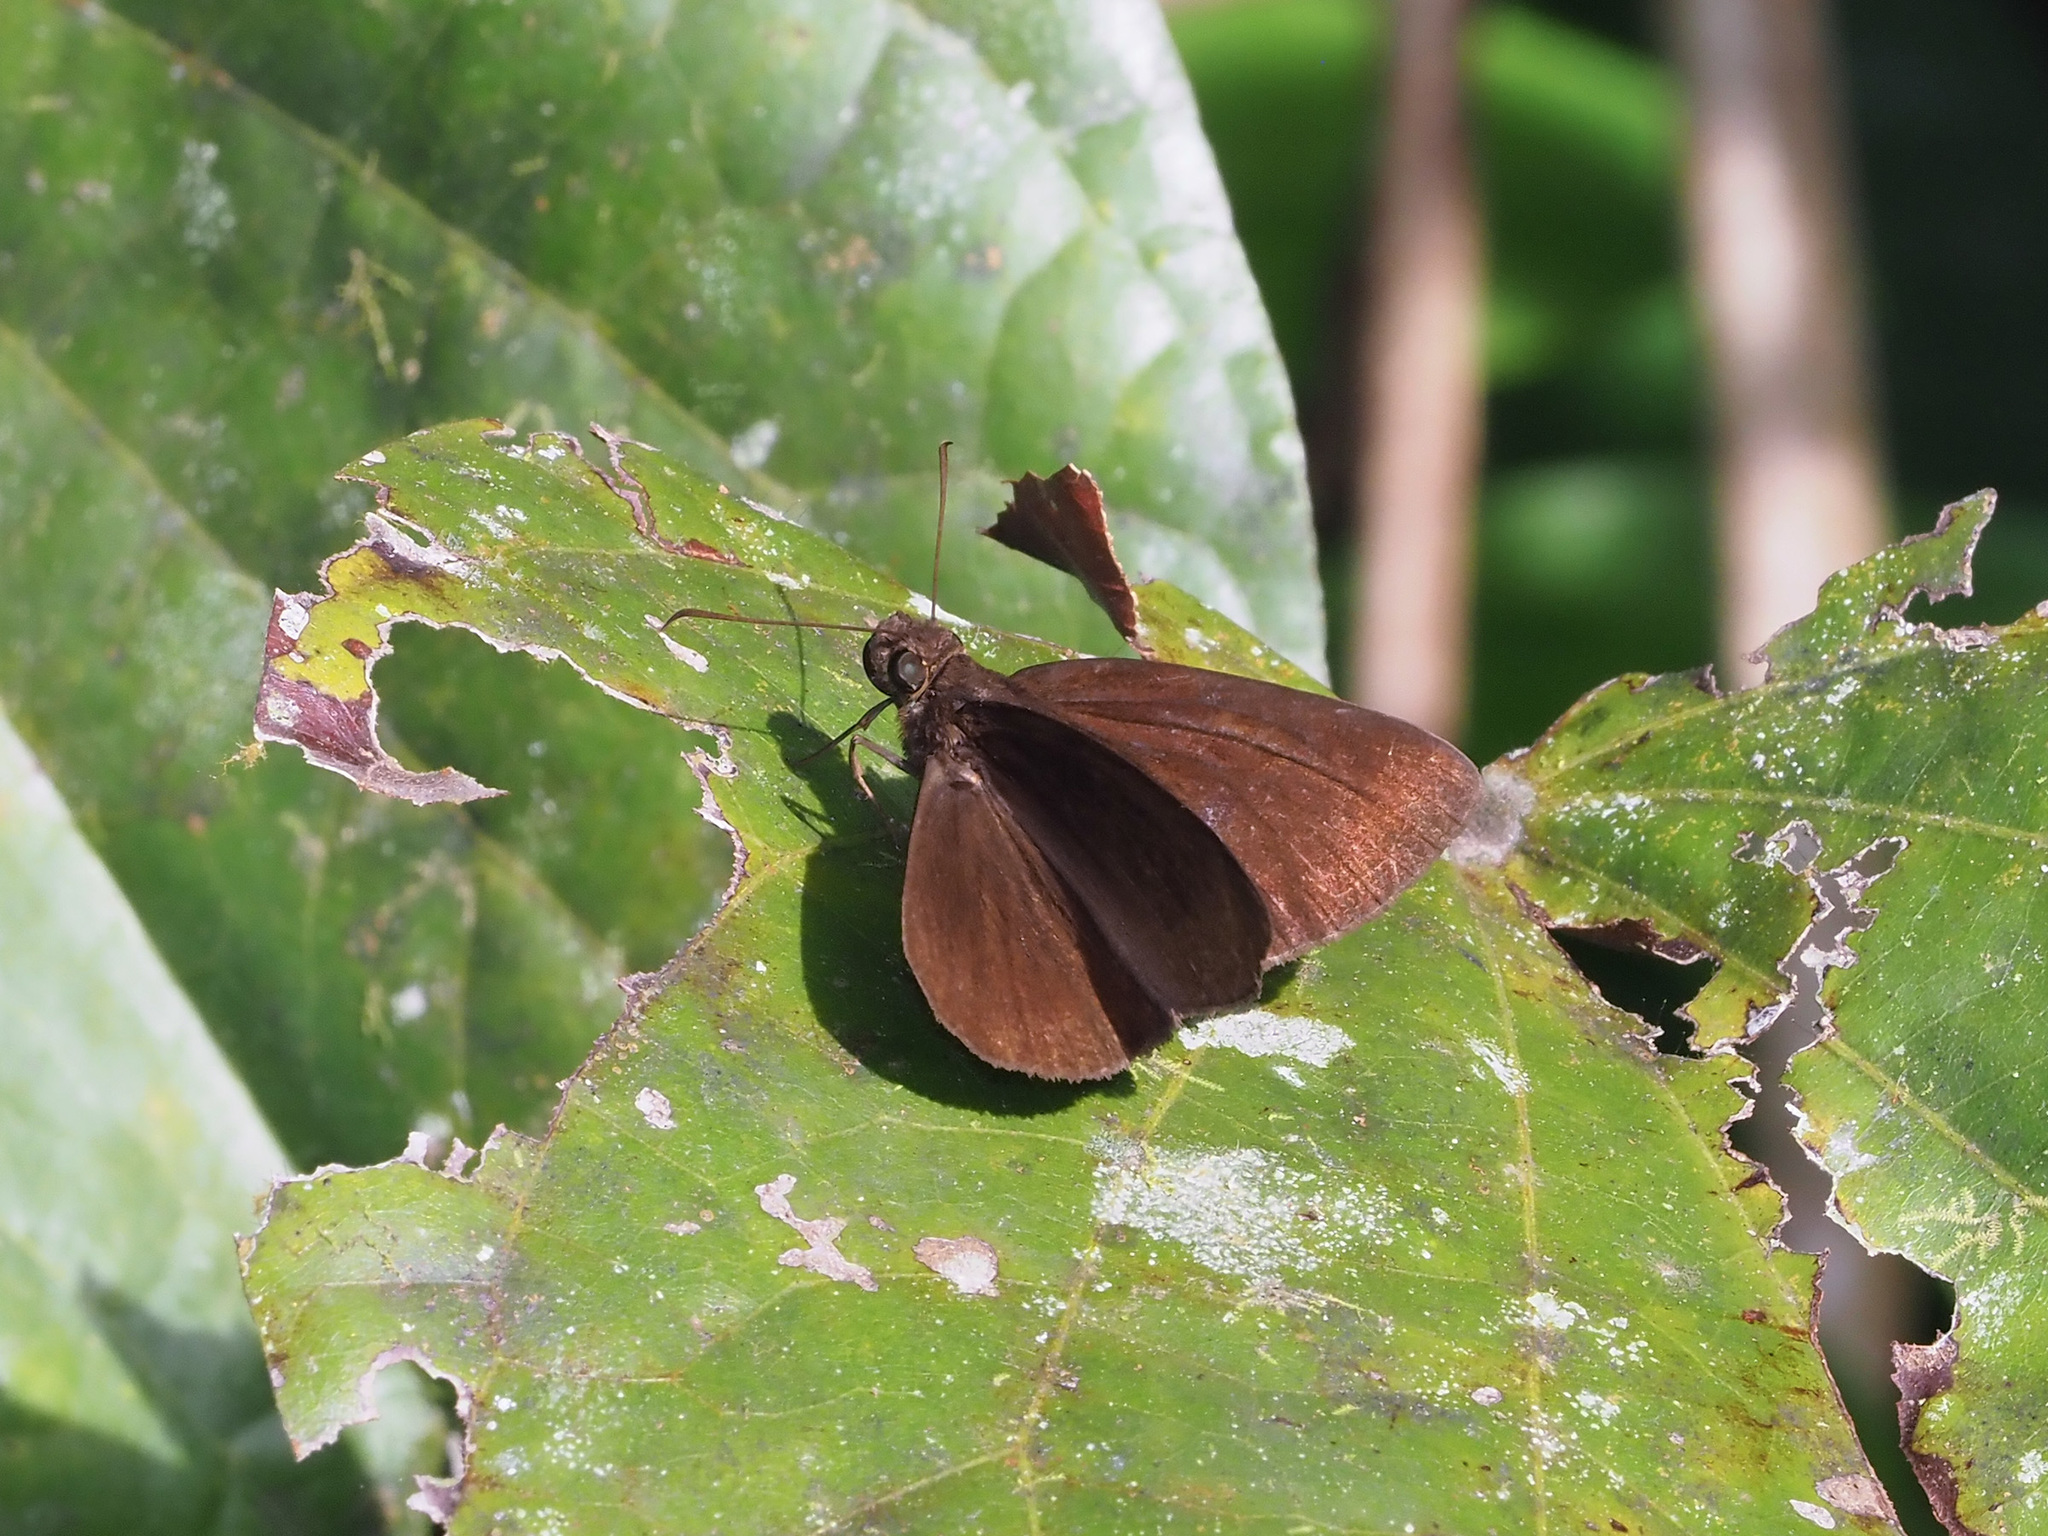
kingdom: Animalia
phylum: Arthropoda
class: Insecta
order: Lepidoptera
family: Hesperiidae
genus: Ancistroides
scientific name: Ancistroides nigrita
